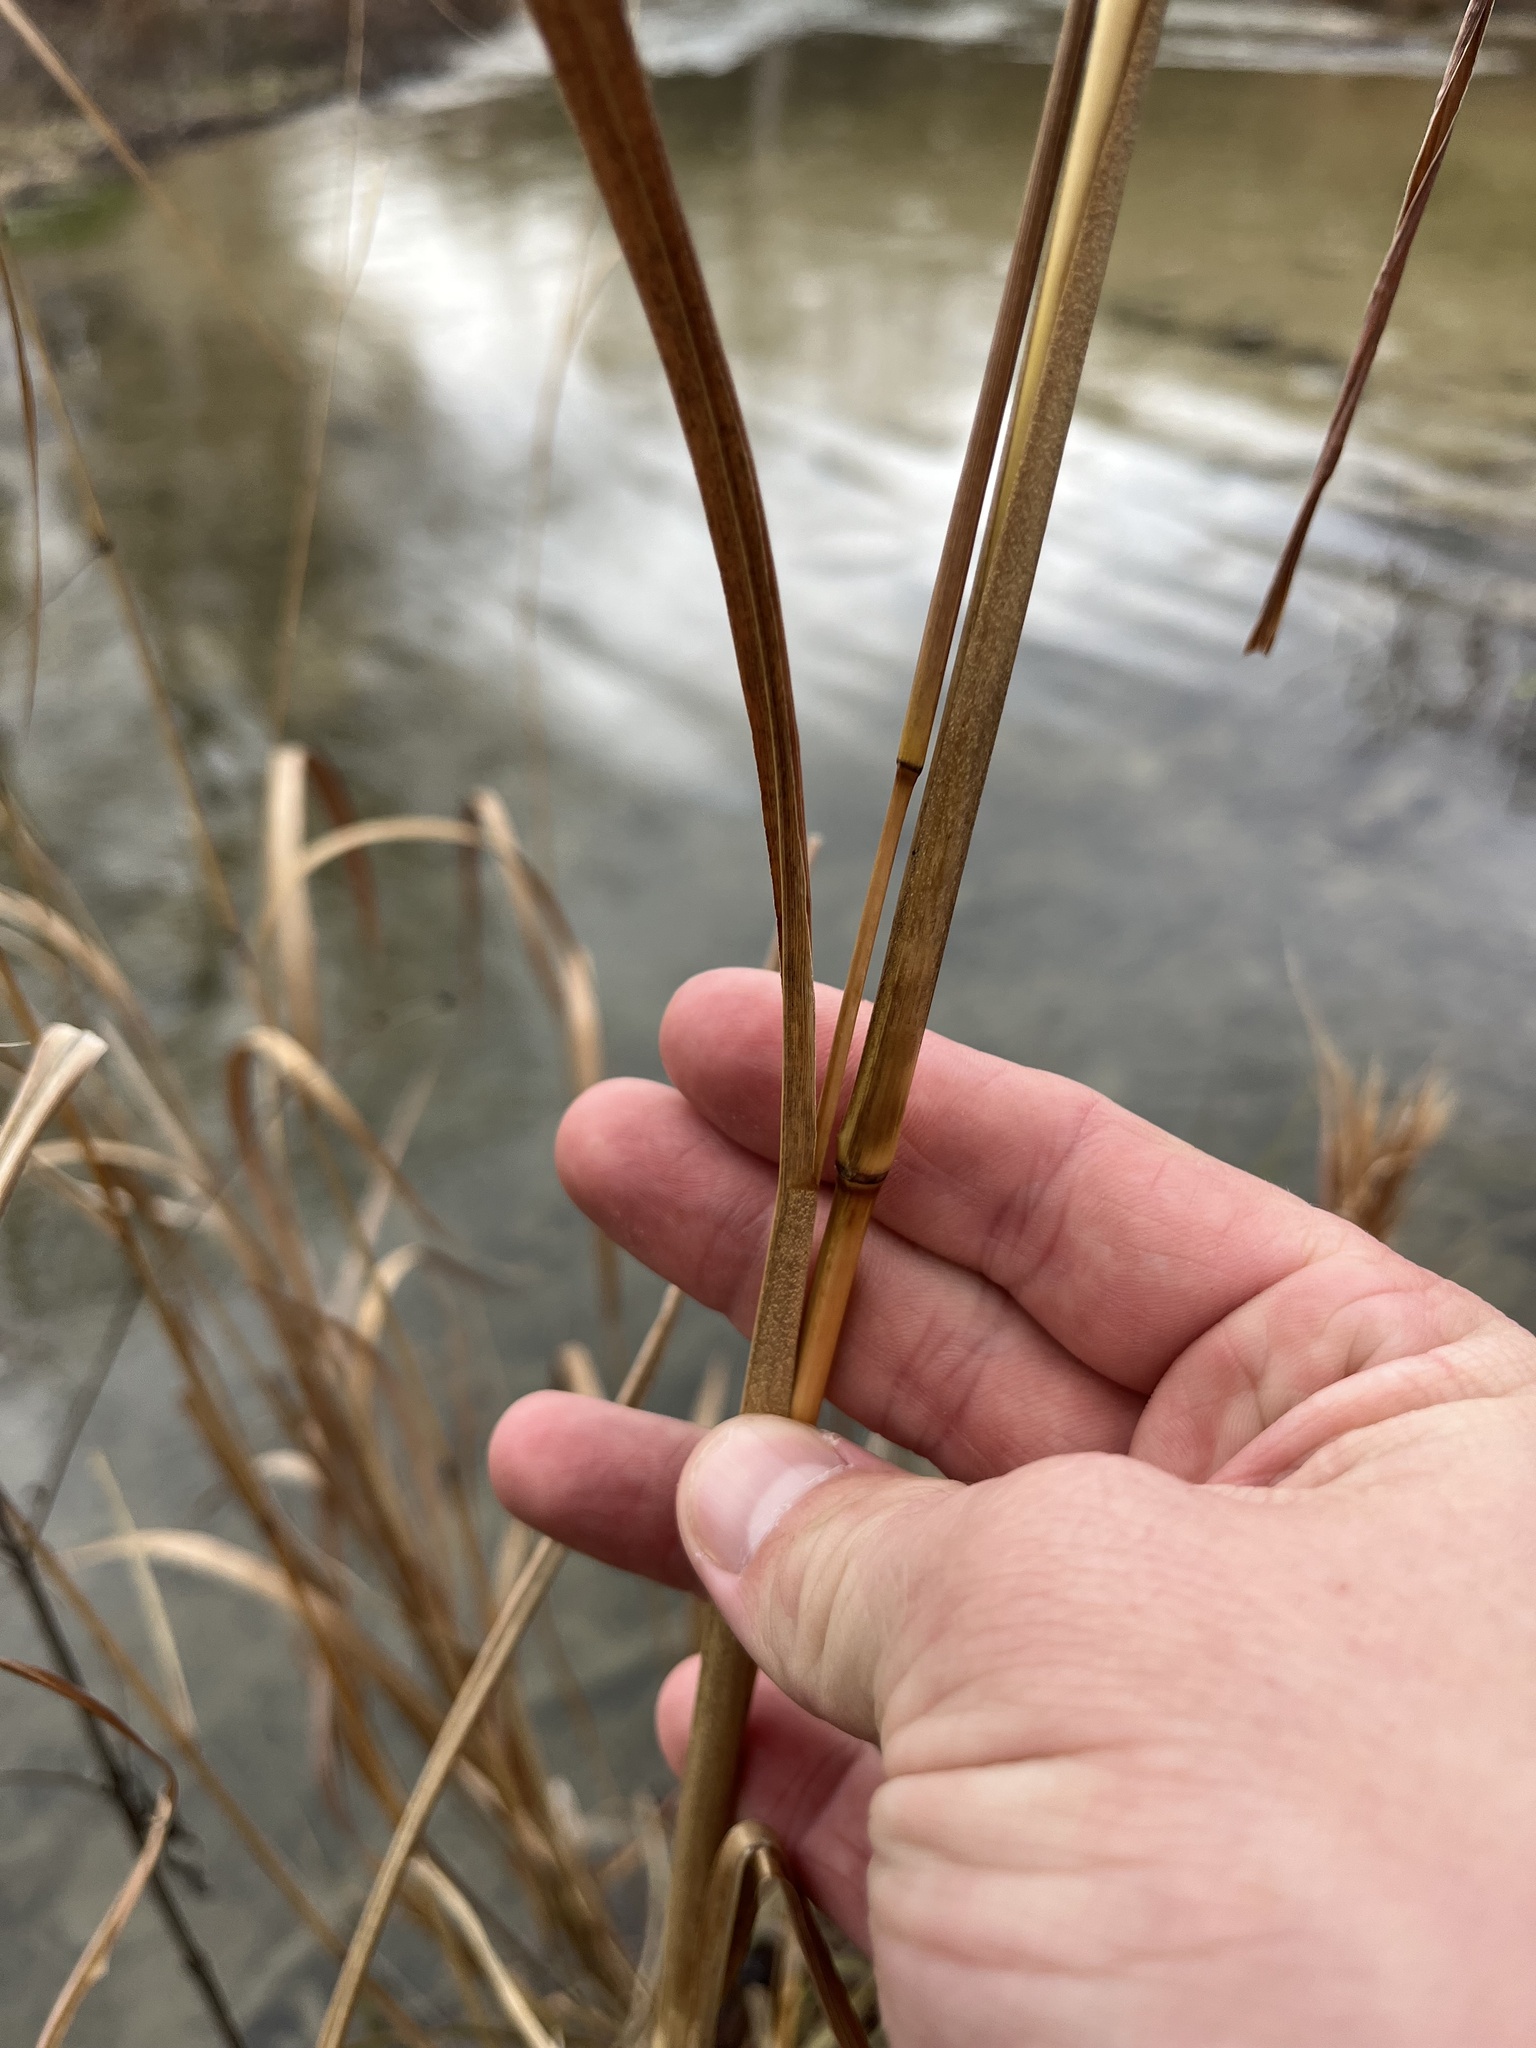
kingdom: Plantae
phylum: Tracheophyta
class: Liliopsida
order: Poales
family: Poaceae
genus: Andropogon
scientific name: Andropogon tenuispatheus
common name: Bushy bluestem
